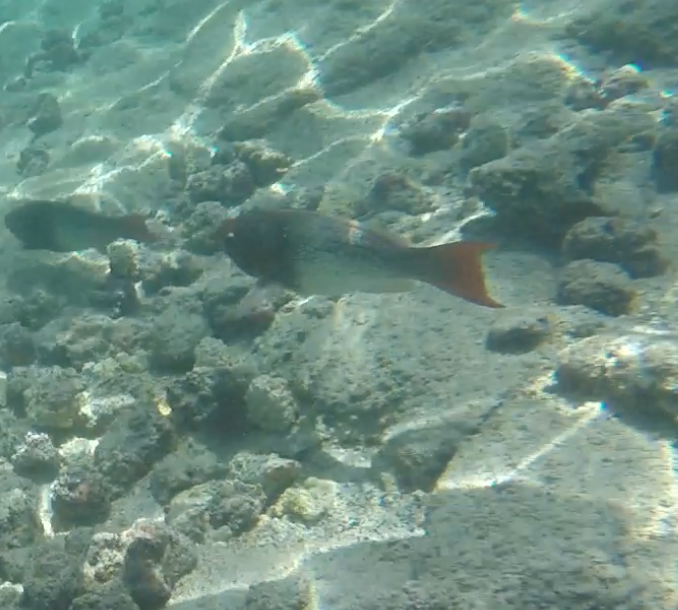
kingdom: Animalia
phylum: Chordata
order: Perciformes
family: Scaridae
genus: Scarus
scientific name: Scarus rubroviolaceus
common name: Ember parrotfish
